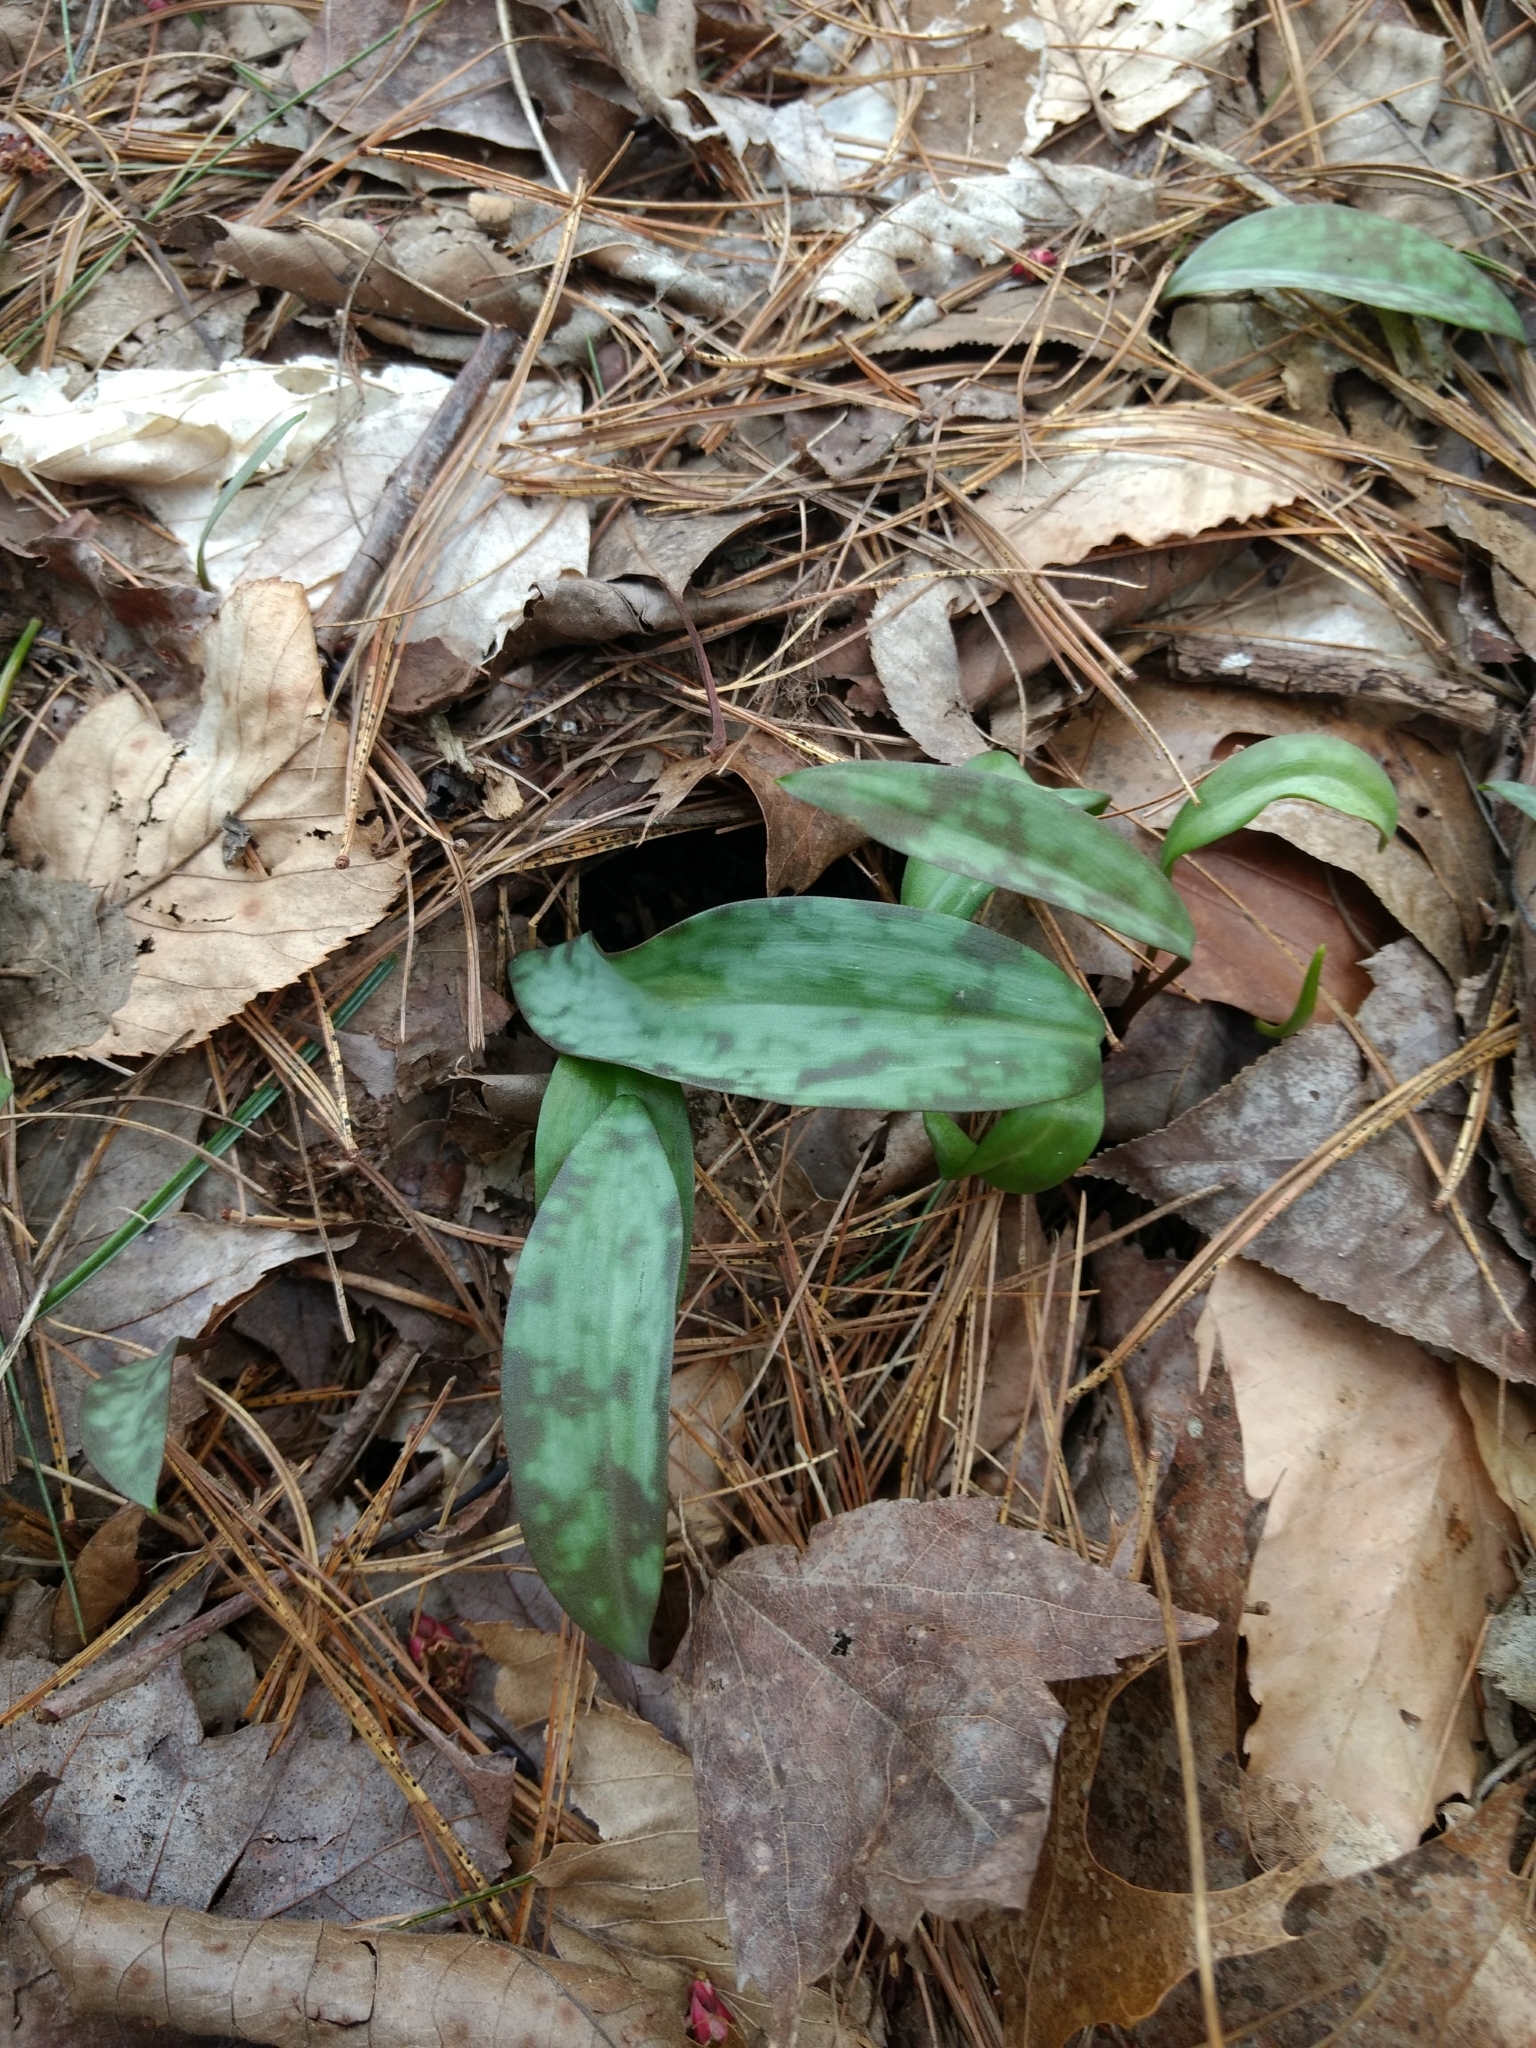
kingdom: Plantae
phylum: Tracheophyta
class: Liliopsida
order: Liliales
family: Liliaceae
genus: Erythronium
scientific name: Erythronium americanum
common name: Yellow adder's-tongue
